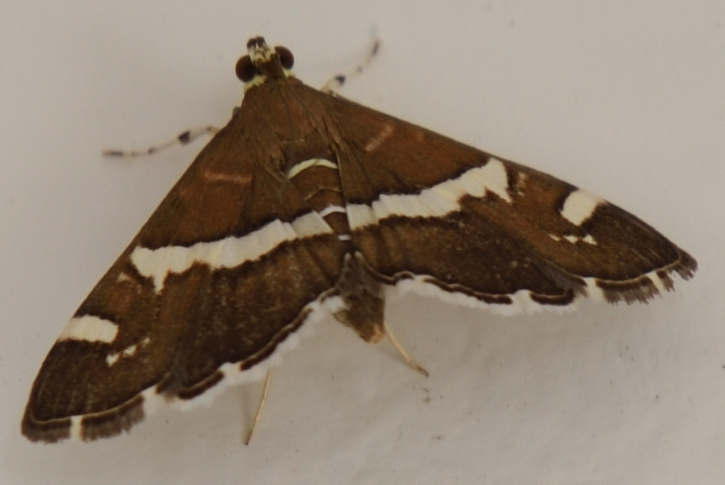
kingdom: Animalia
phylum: Arthropoda
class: Insecta
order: Lepidoptera
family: Crambidae
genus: Spoladea
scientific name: Spoladea recurvalis
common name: Beet webworm moth
